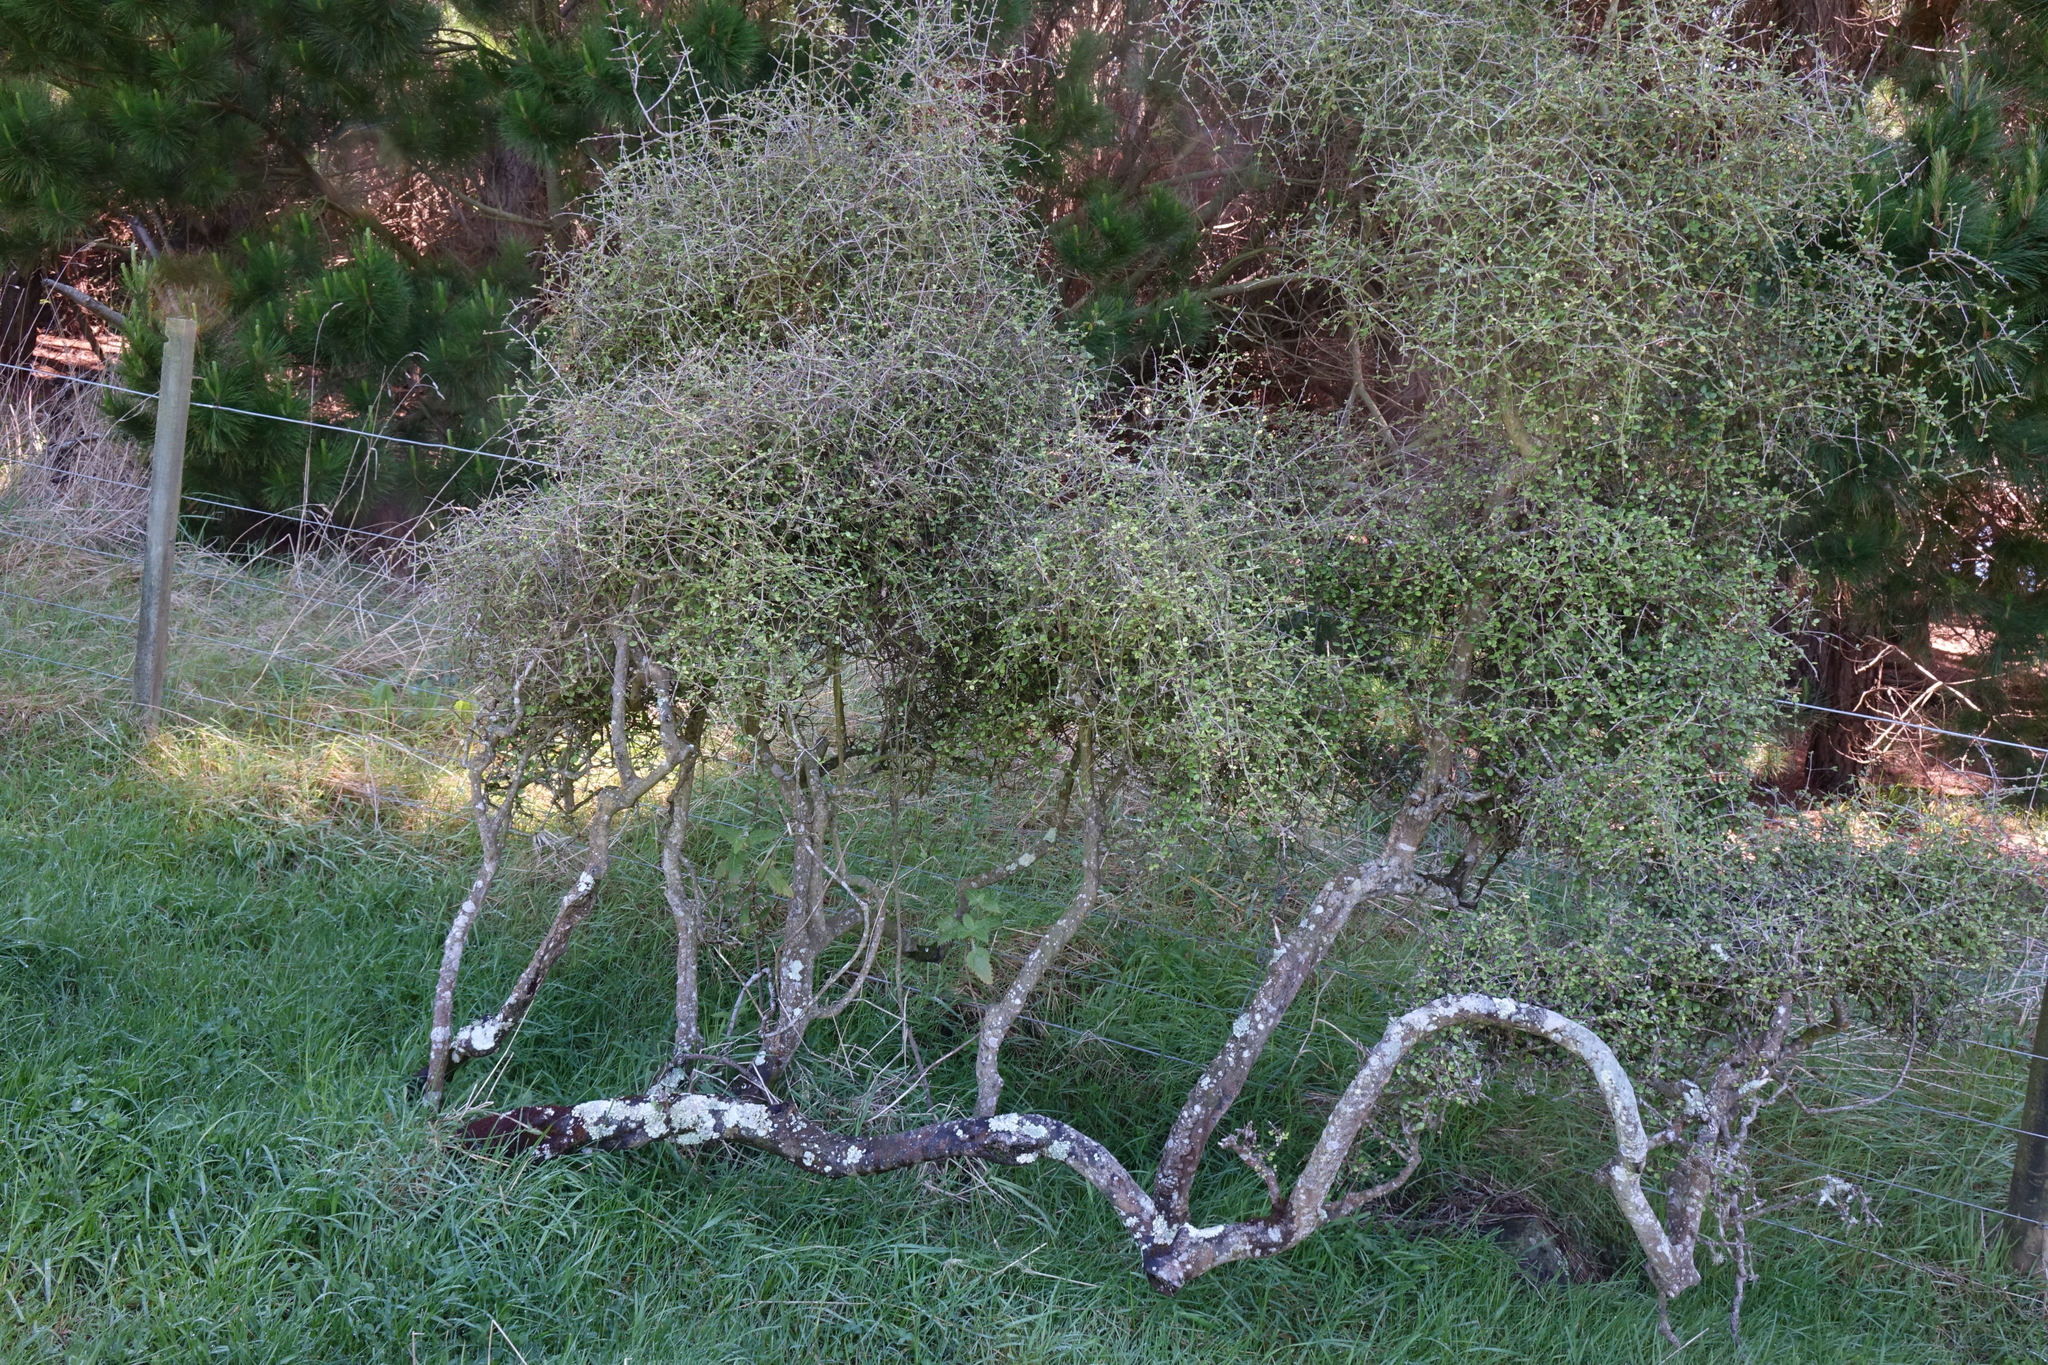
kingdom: Plantae
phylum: Tracheophyta
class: Magnoliopsida
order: Gentianales
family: Rubiaceae
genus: Coprosma
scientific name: Coprosma crassifolia
